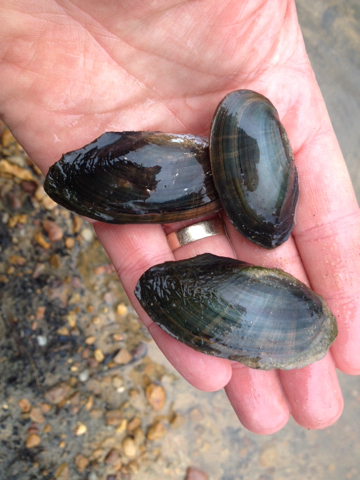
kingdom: Animalia
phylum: Mollusca
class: Bivalvia
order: Unionida
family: Unionidae
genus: Utterbackia
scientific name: Utterbackia imbecillis
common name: Paper pondshell
